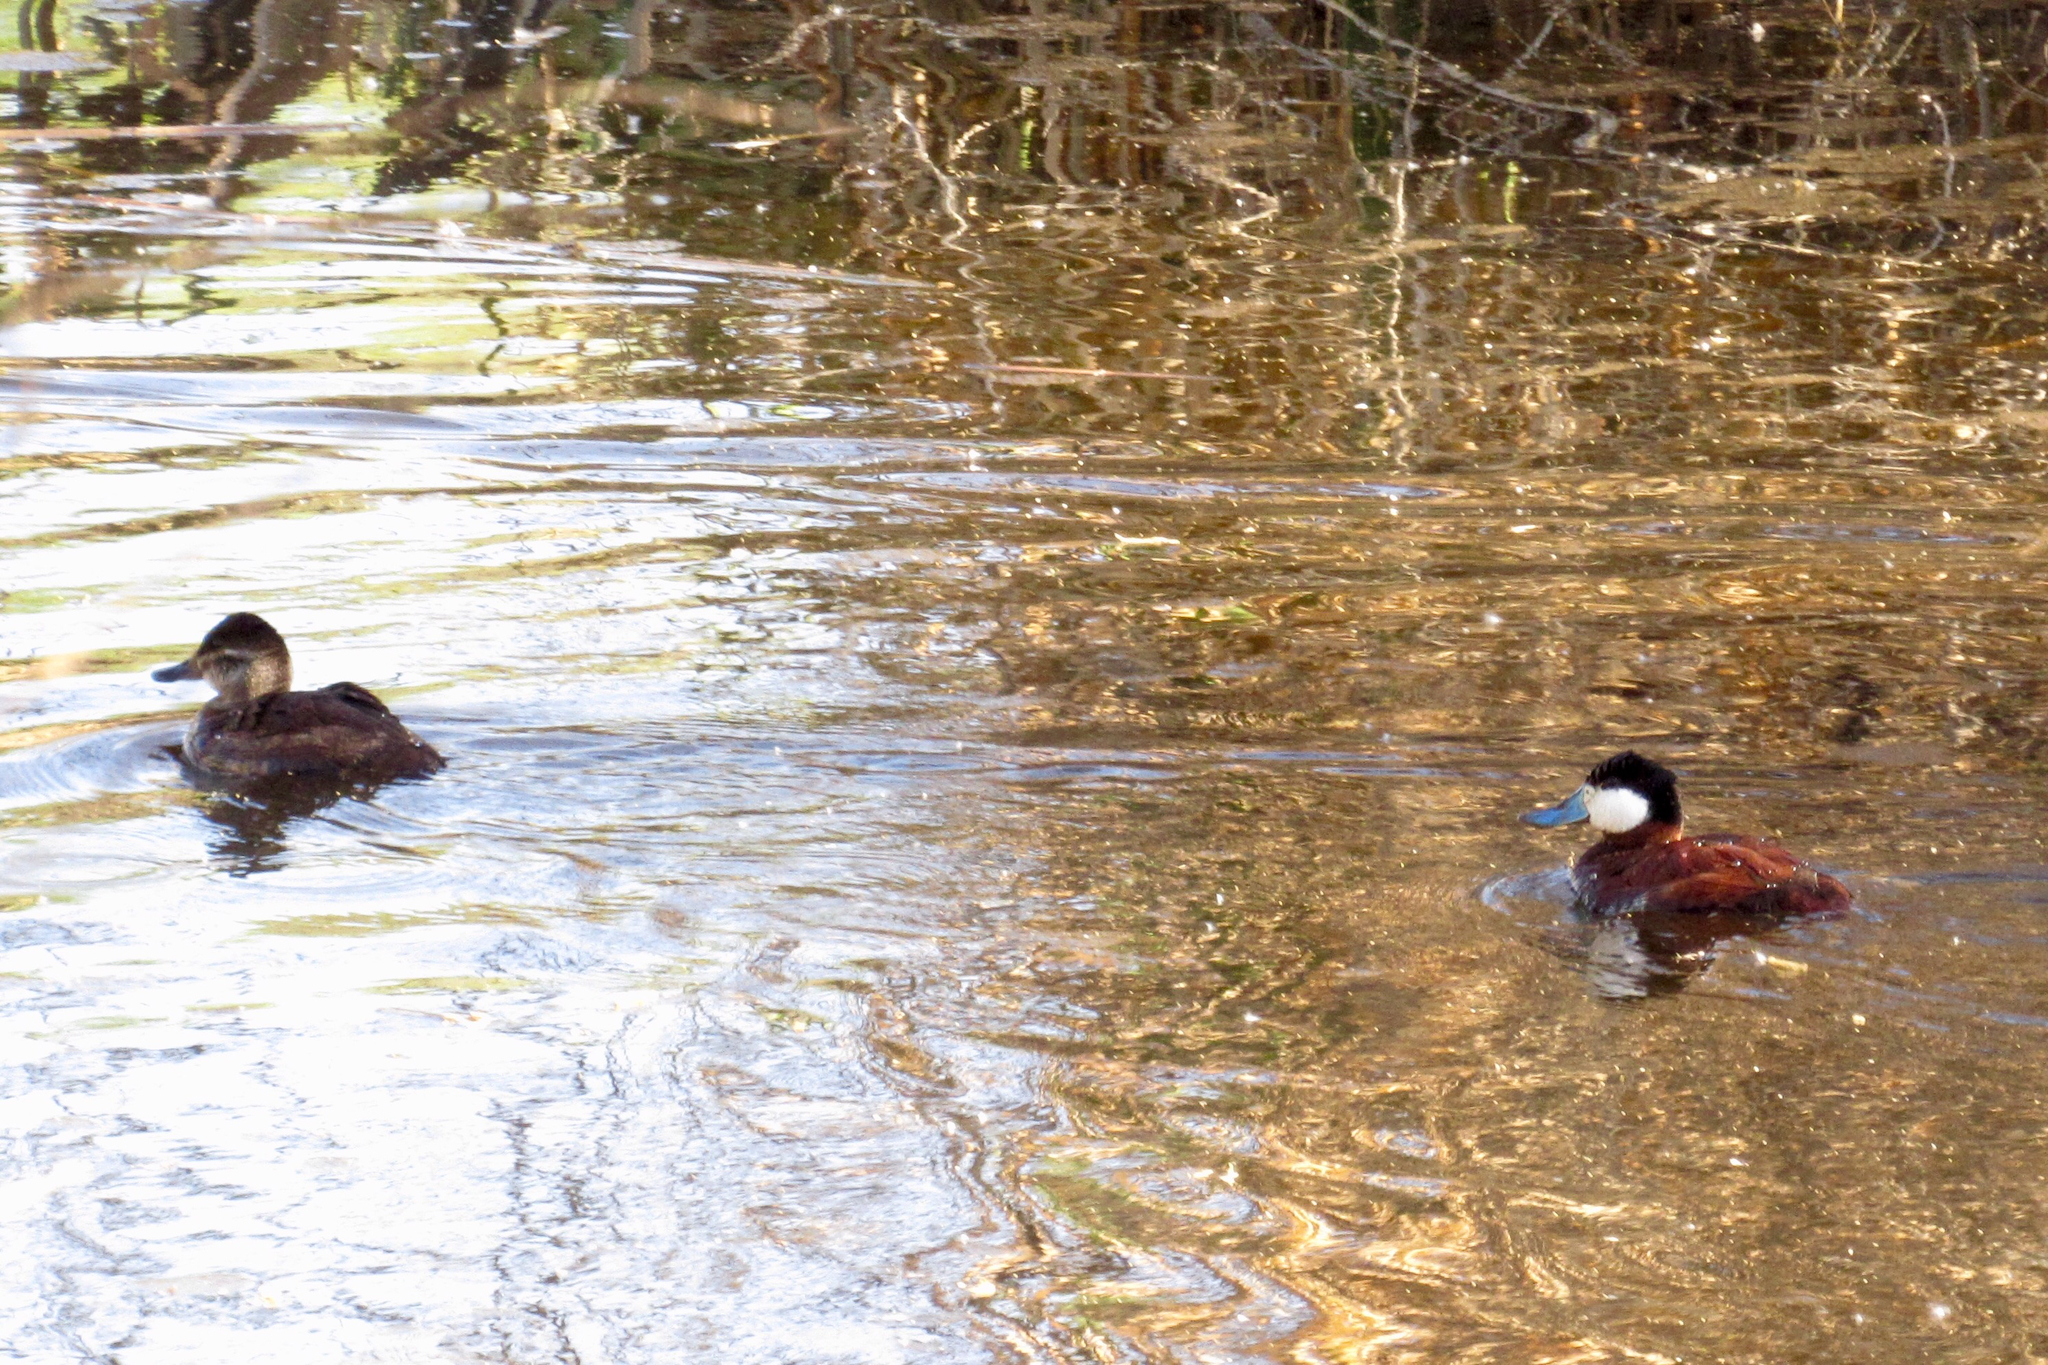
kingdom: Animalia
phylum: Chordata
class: Aves
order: Anseriformes
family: Anatidae
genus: Oxyura
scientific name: Oxyura jamaicensis
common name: Ruddy duck
